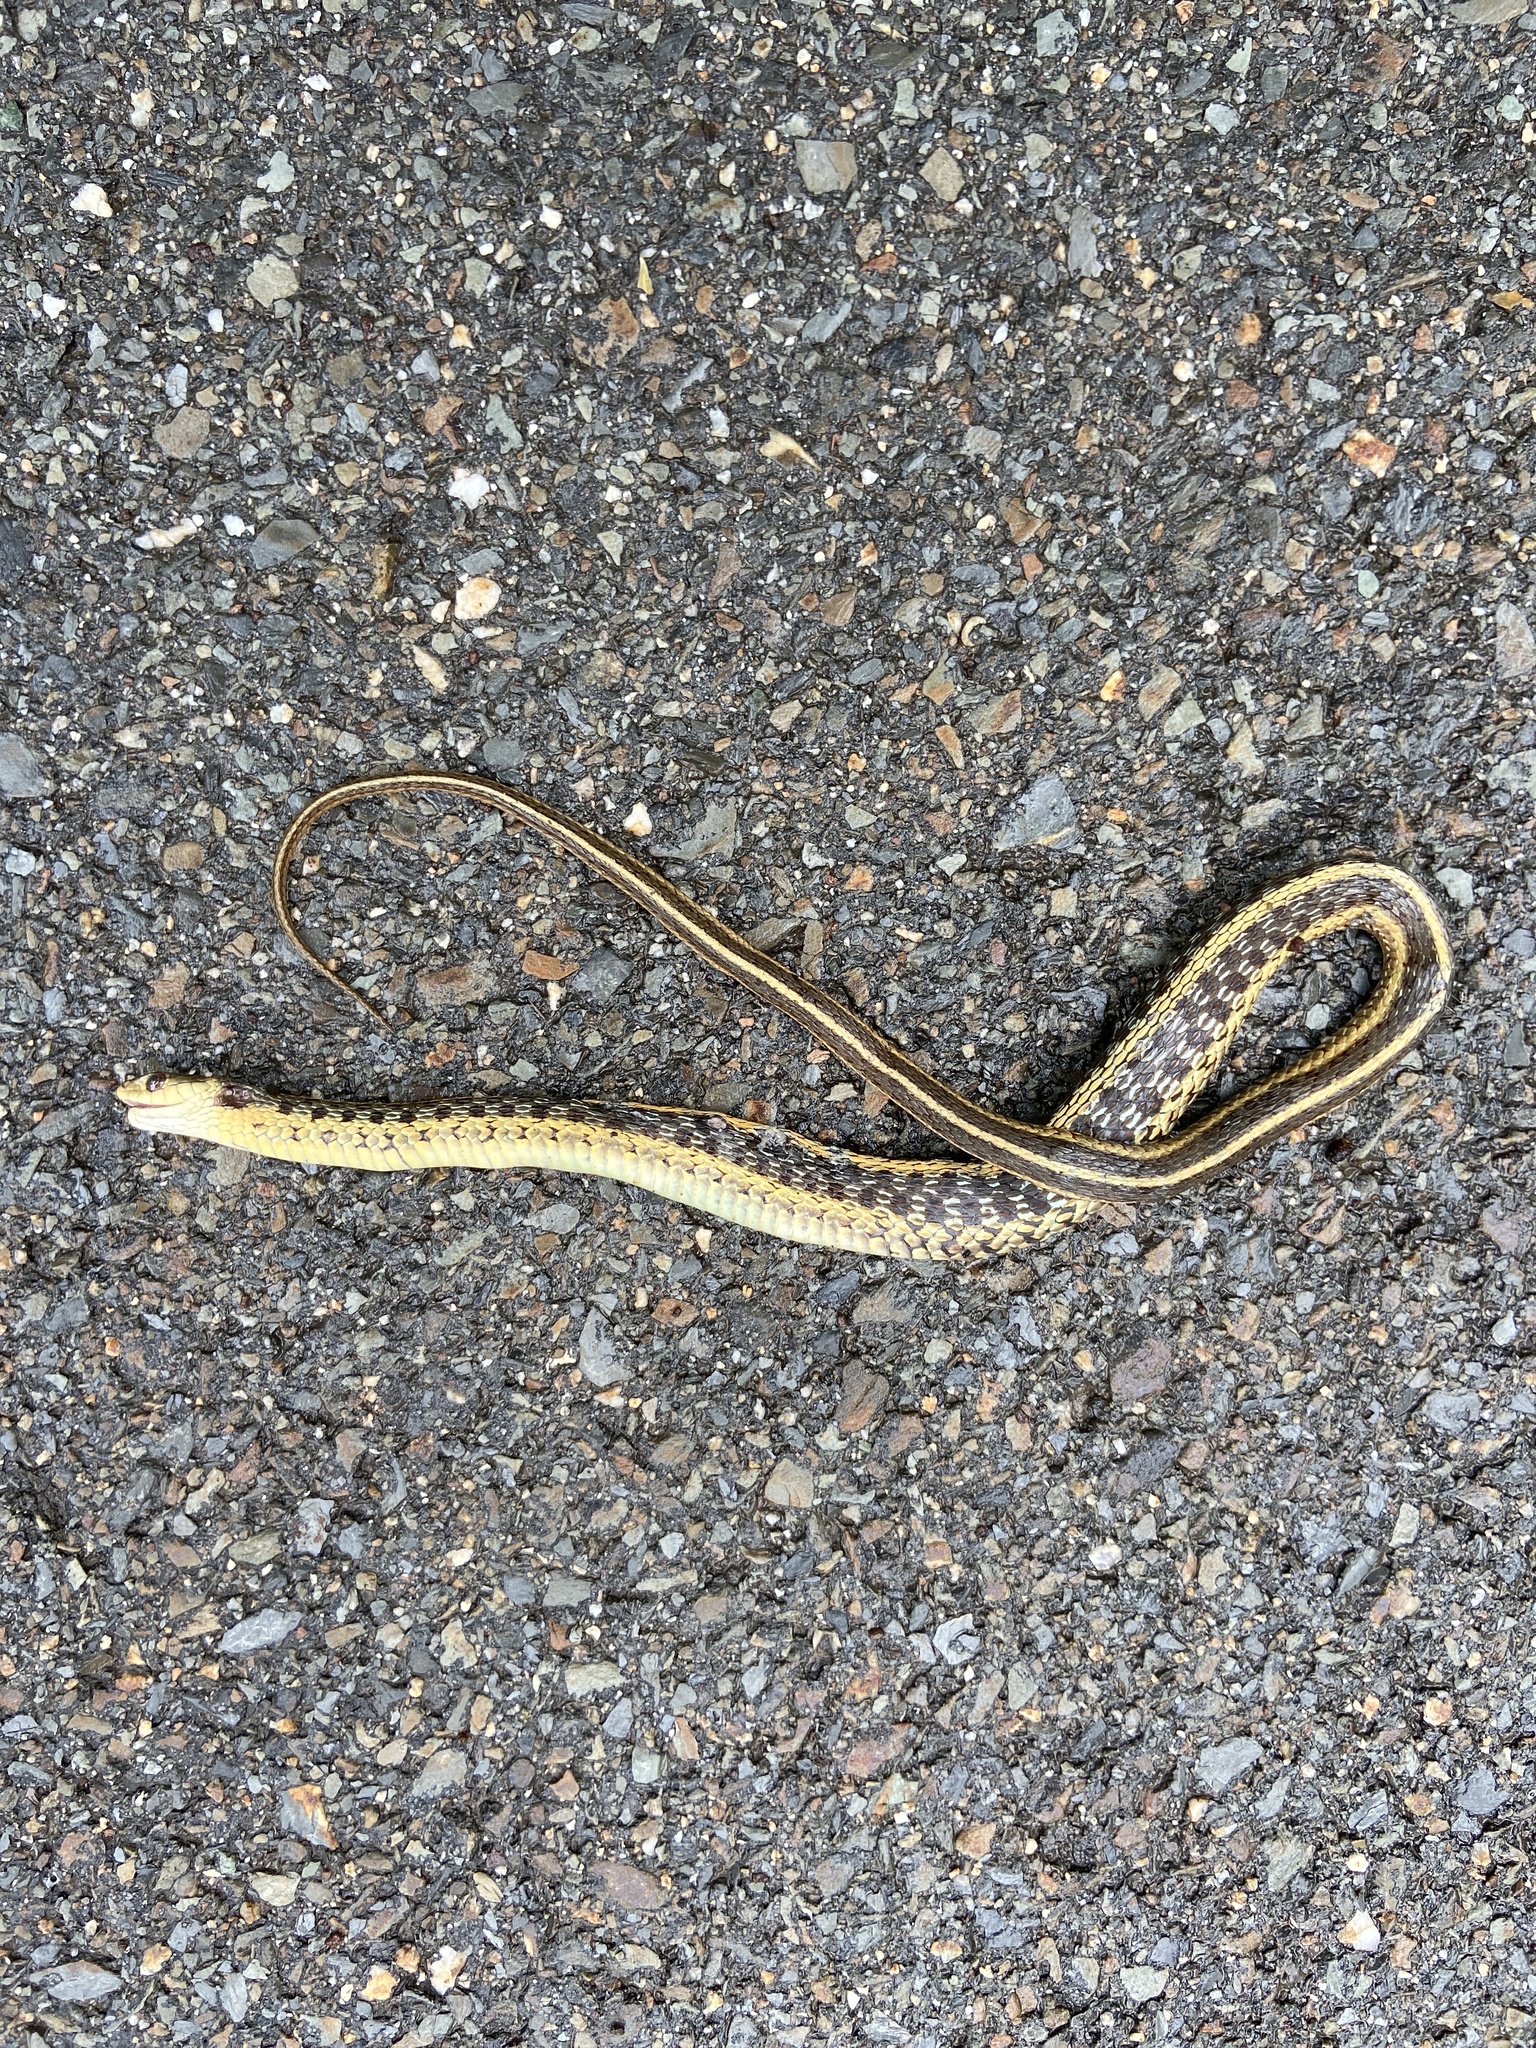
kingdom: Animalia
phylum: Chordata
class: Squamata
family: Colubridae
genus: Thamnophis
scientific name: Thamnophis sirtalis
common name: Common garter snake
